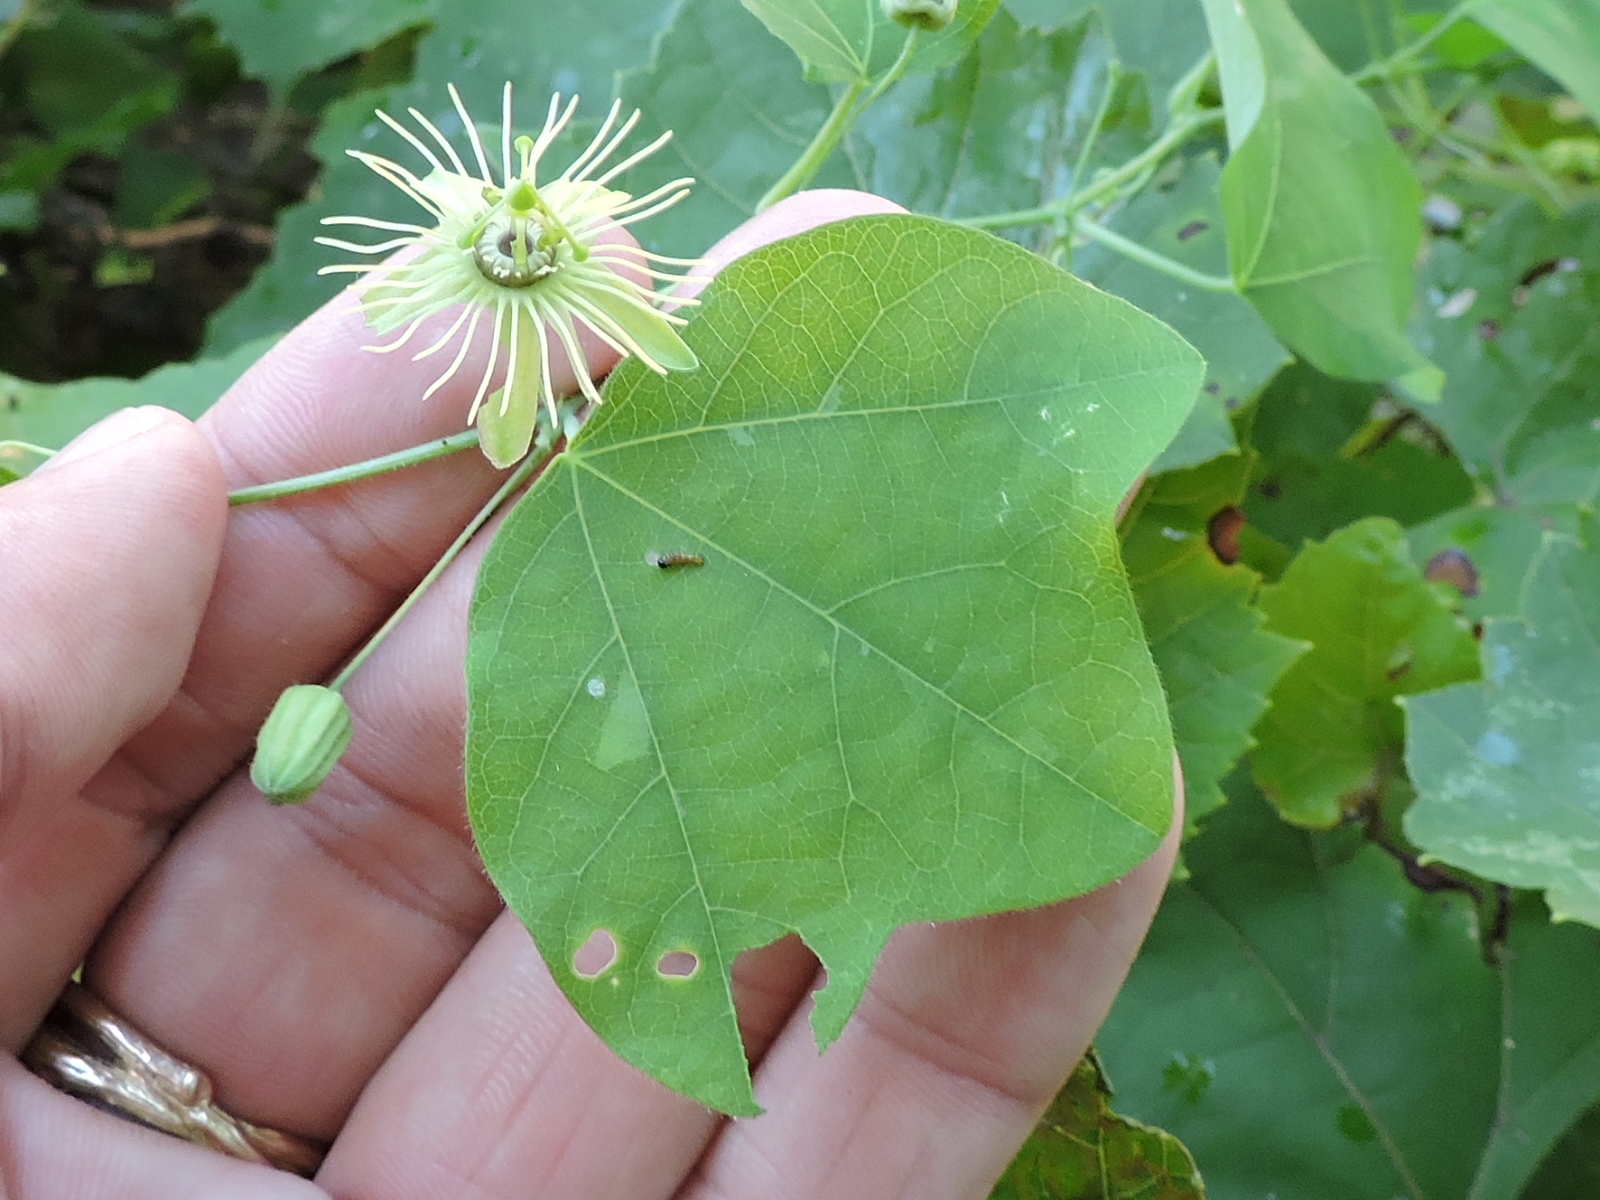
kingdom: Plantae
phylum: Tracheophyta
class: Magnoliopsida
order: Malpighiales
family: Passifloraceae
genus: Passiflora
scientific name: Passiflora lutea
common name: Yellow passionflower
